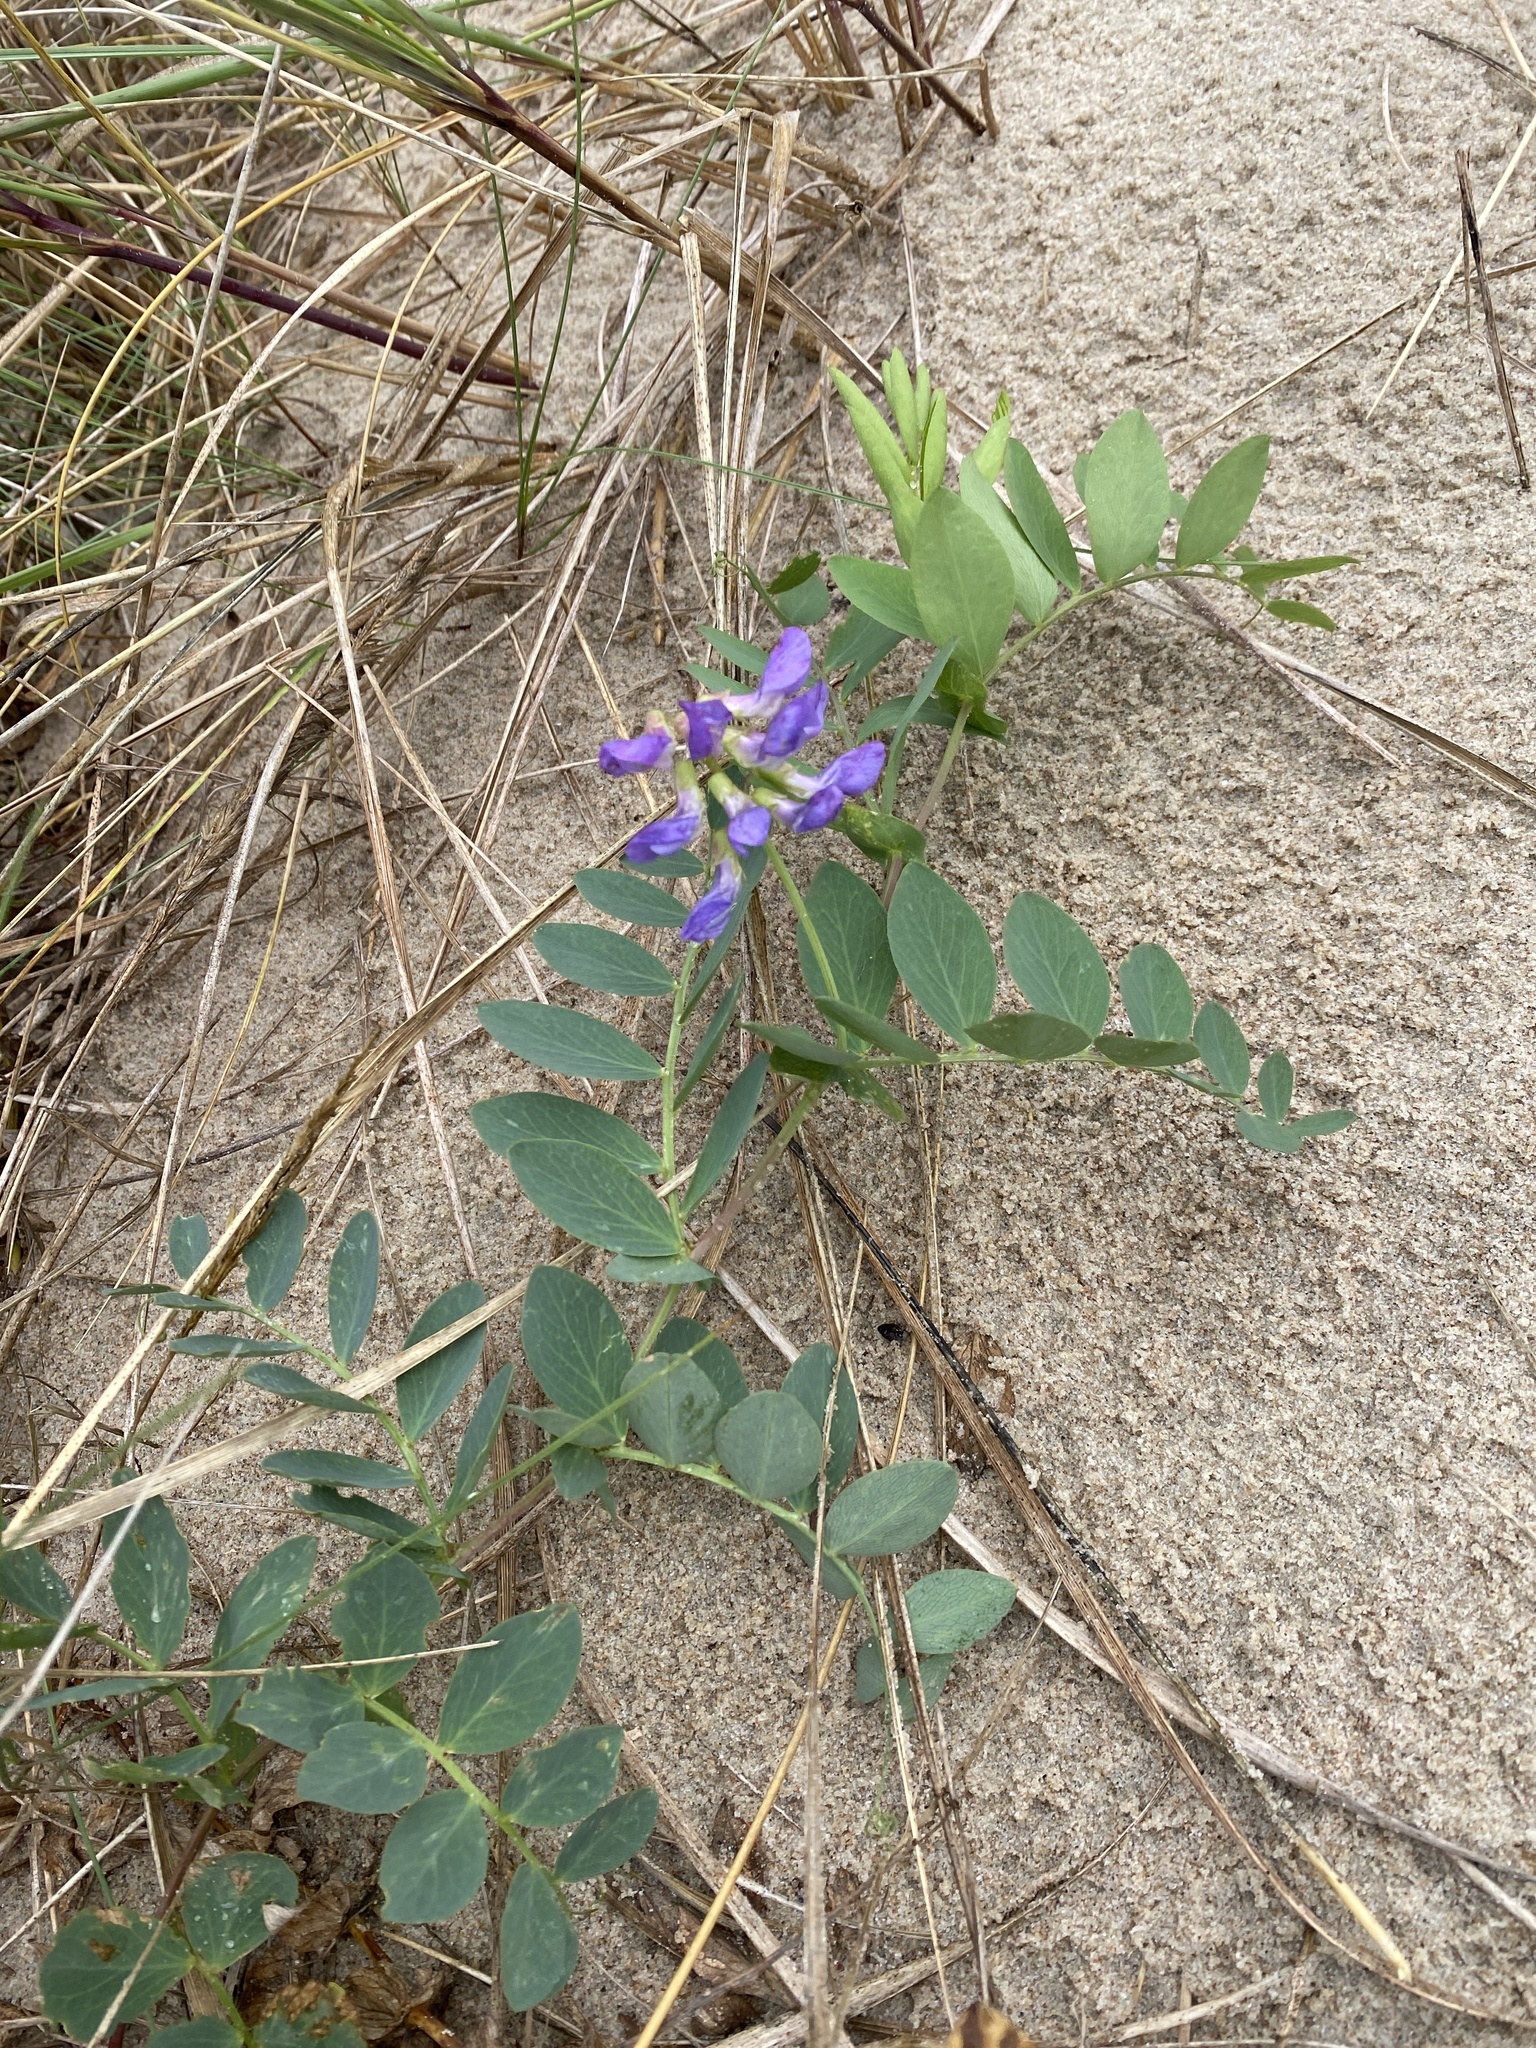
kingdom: Plantae
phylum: Tracheophyta
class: Magnoliopsida
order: Fabales
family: Fabaceae
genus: Lathyrus
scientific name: Lathyrus japonicus
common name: Sea pea
